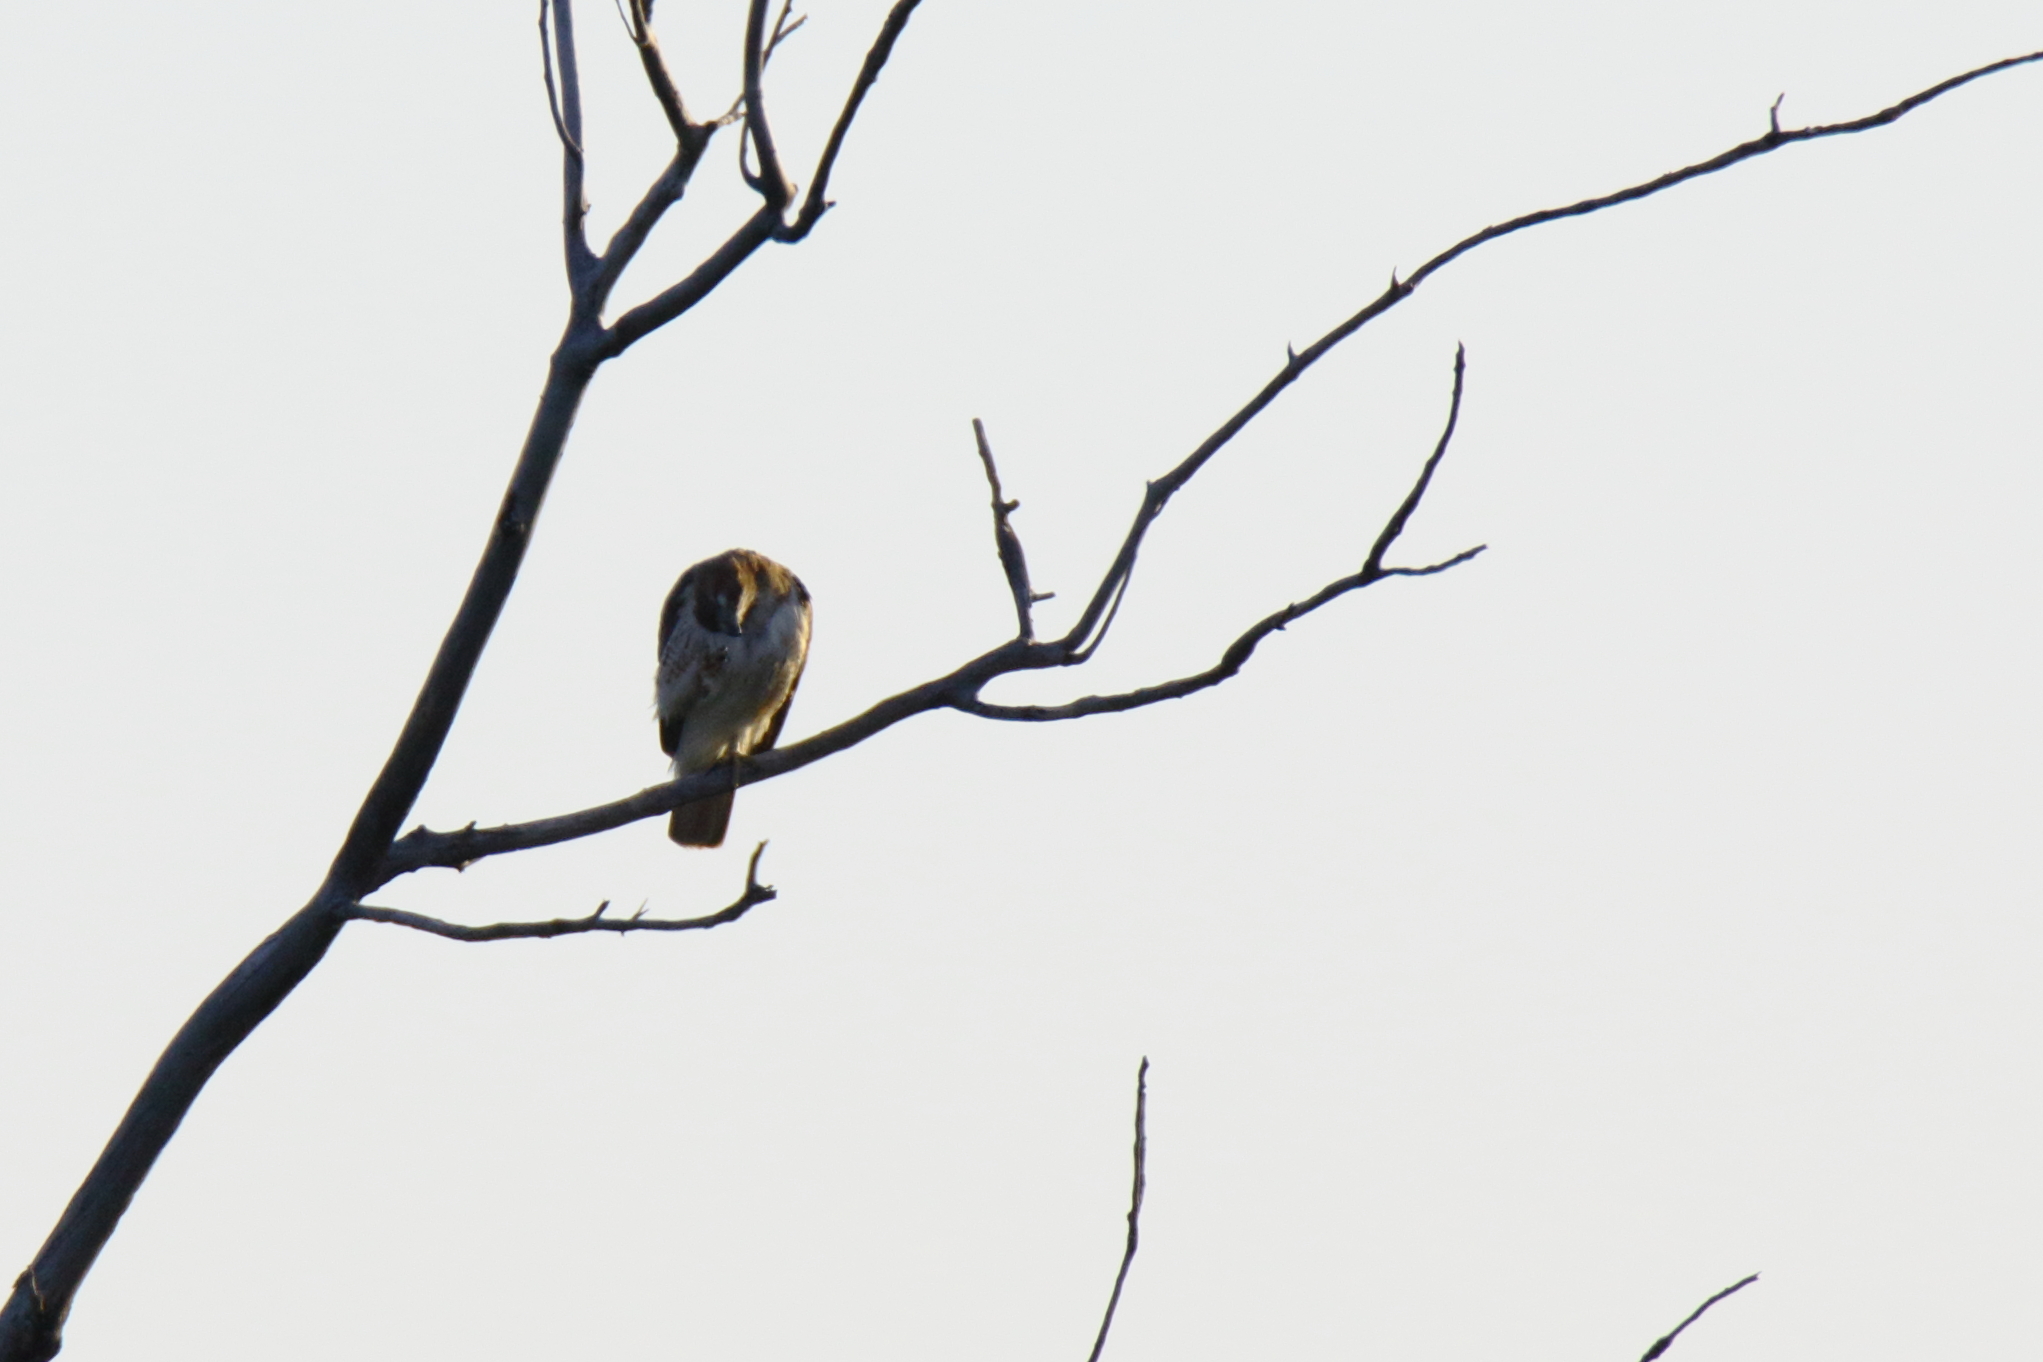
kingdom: Animalia
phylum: Chordata
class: Aves
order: Accipitriformes
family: Accipitridae
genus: Buteo
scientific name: Buteo jamaicensis
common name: Red-tailed hawk
